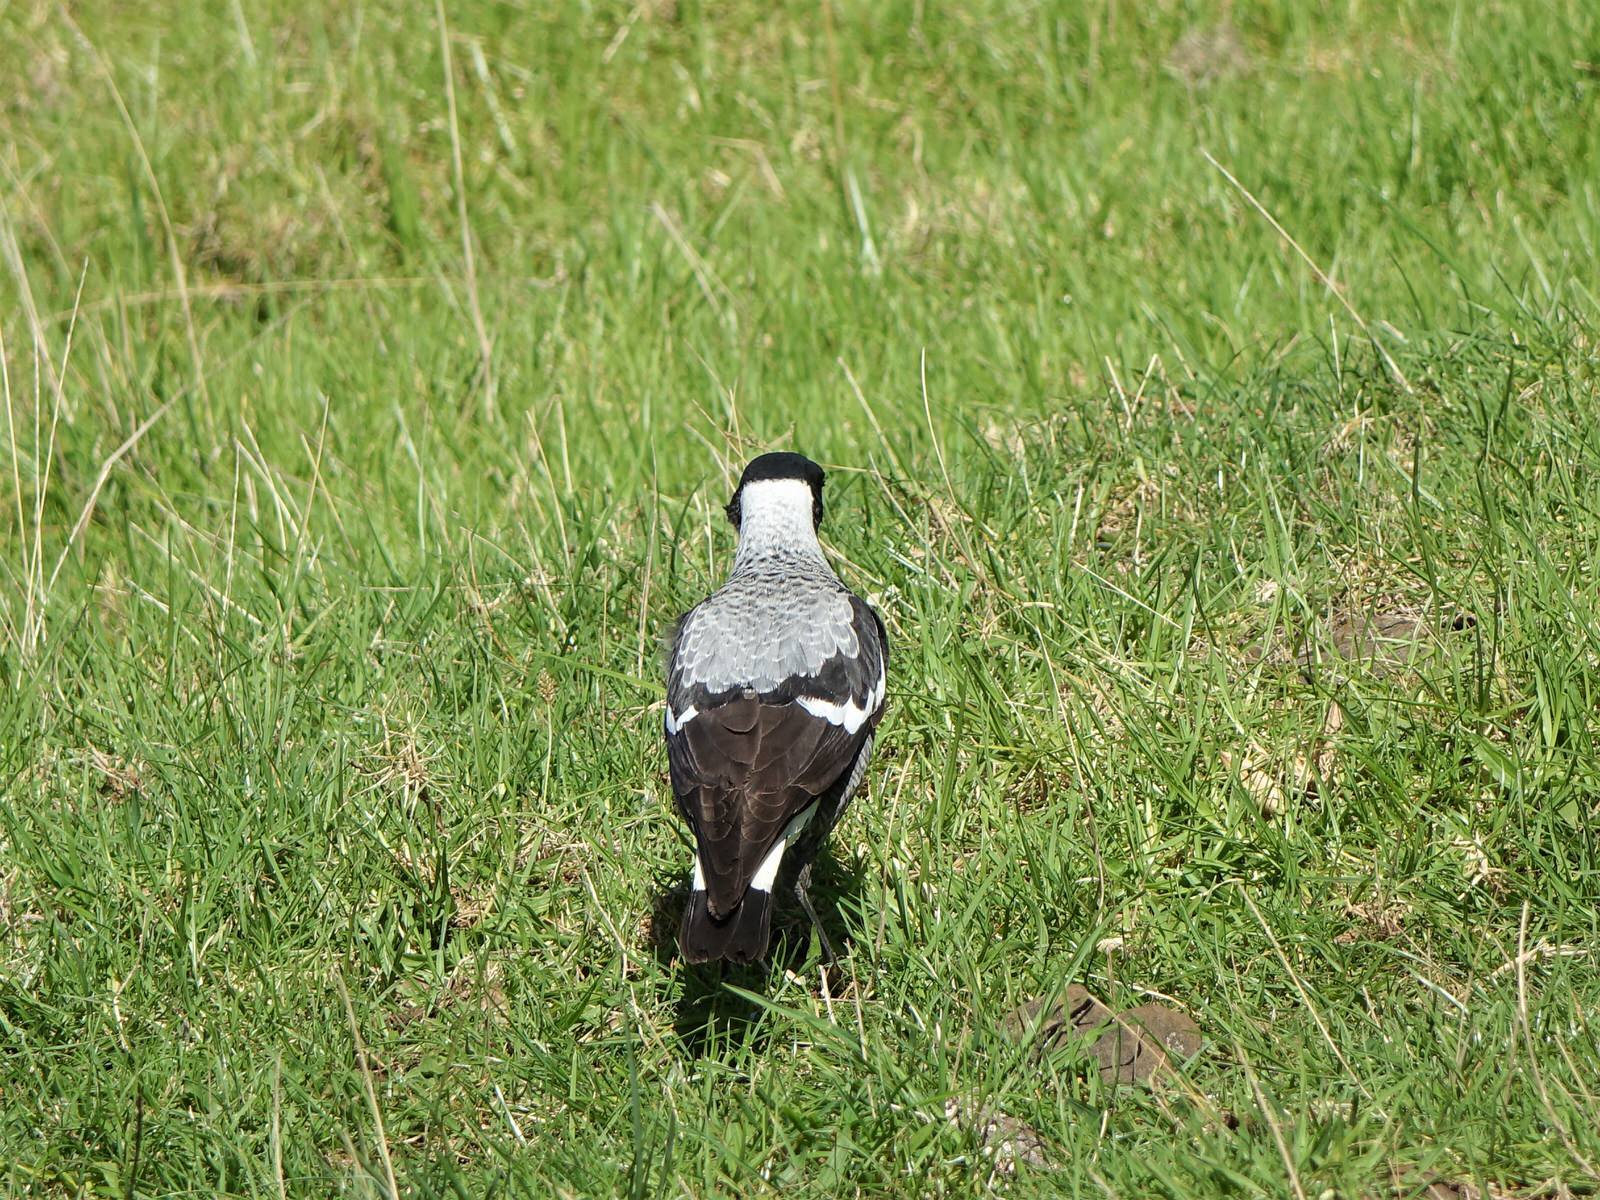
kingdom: Animalia
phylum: Chordata
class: Aves
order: Passeriformes
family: Cracticidae
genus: Gymnorhina
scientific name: Gymnorhina tibicen
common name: Australian magpie
